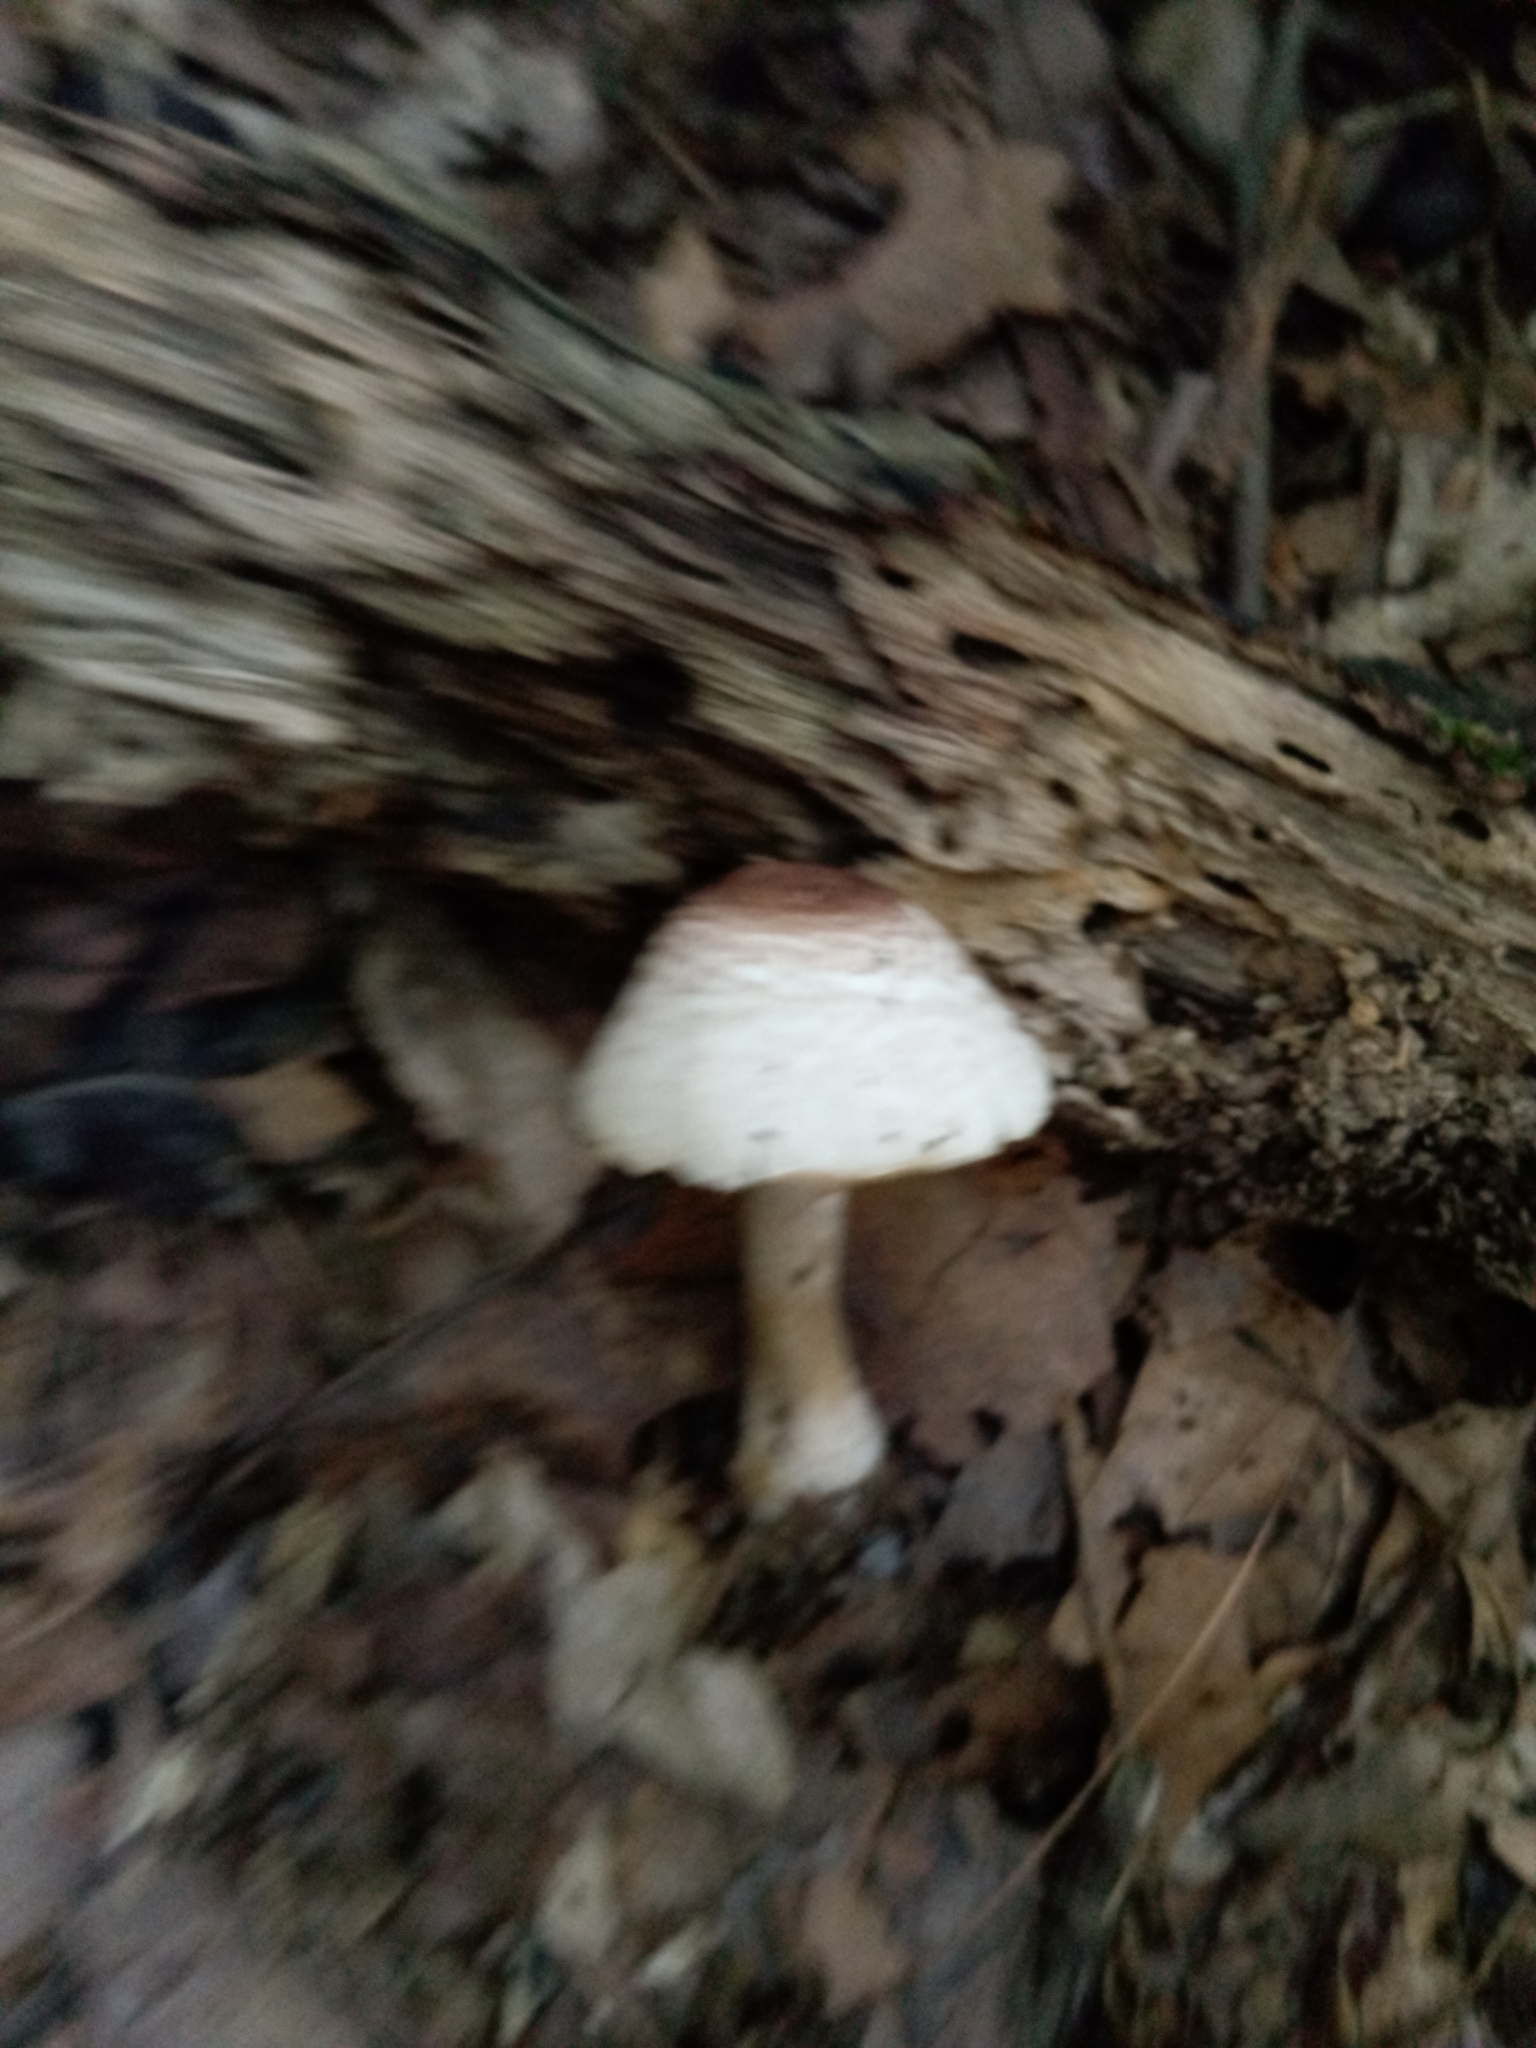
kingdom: Fungi
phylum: Basidiomycota
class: Agaricomycetes
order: Agaricales
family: Agaricaceae
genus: Agaricus
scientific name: Agaricus vinosobrunneofumidus
